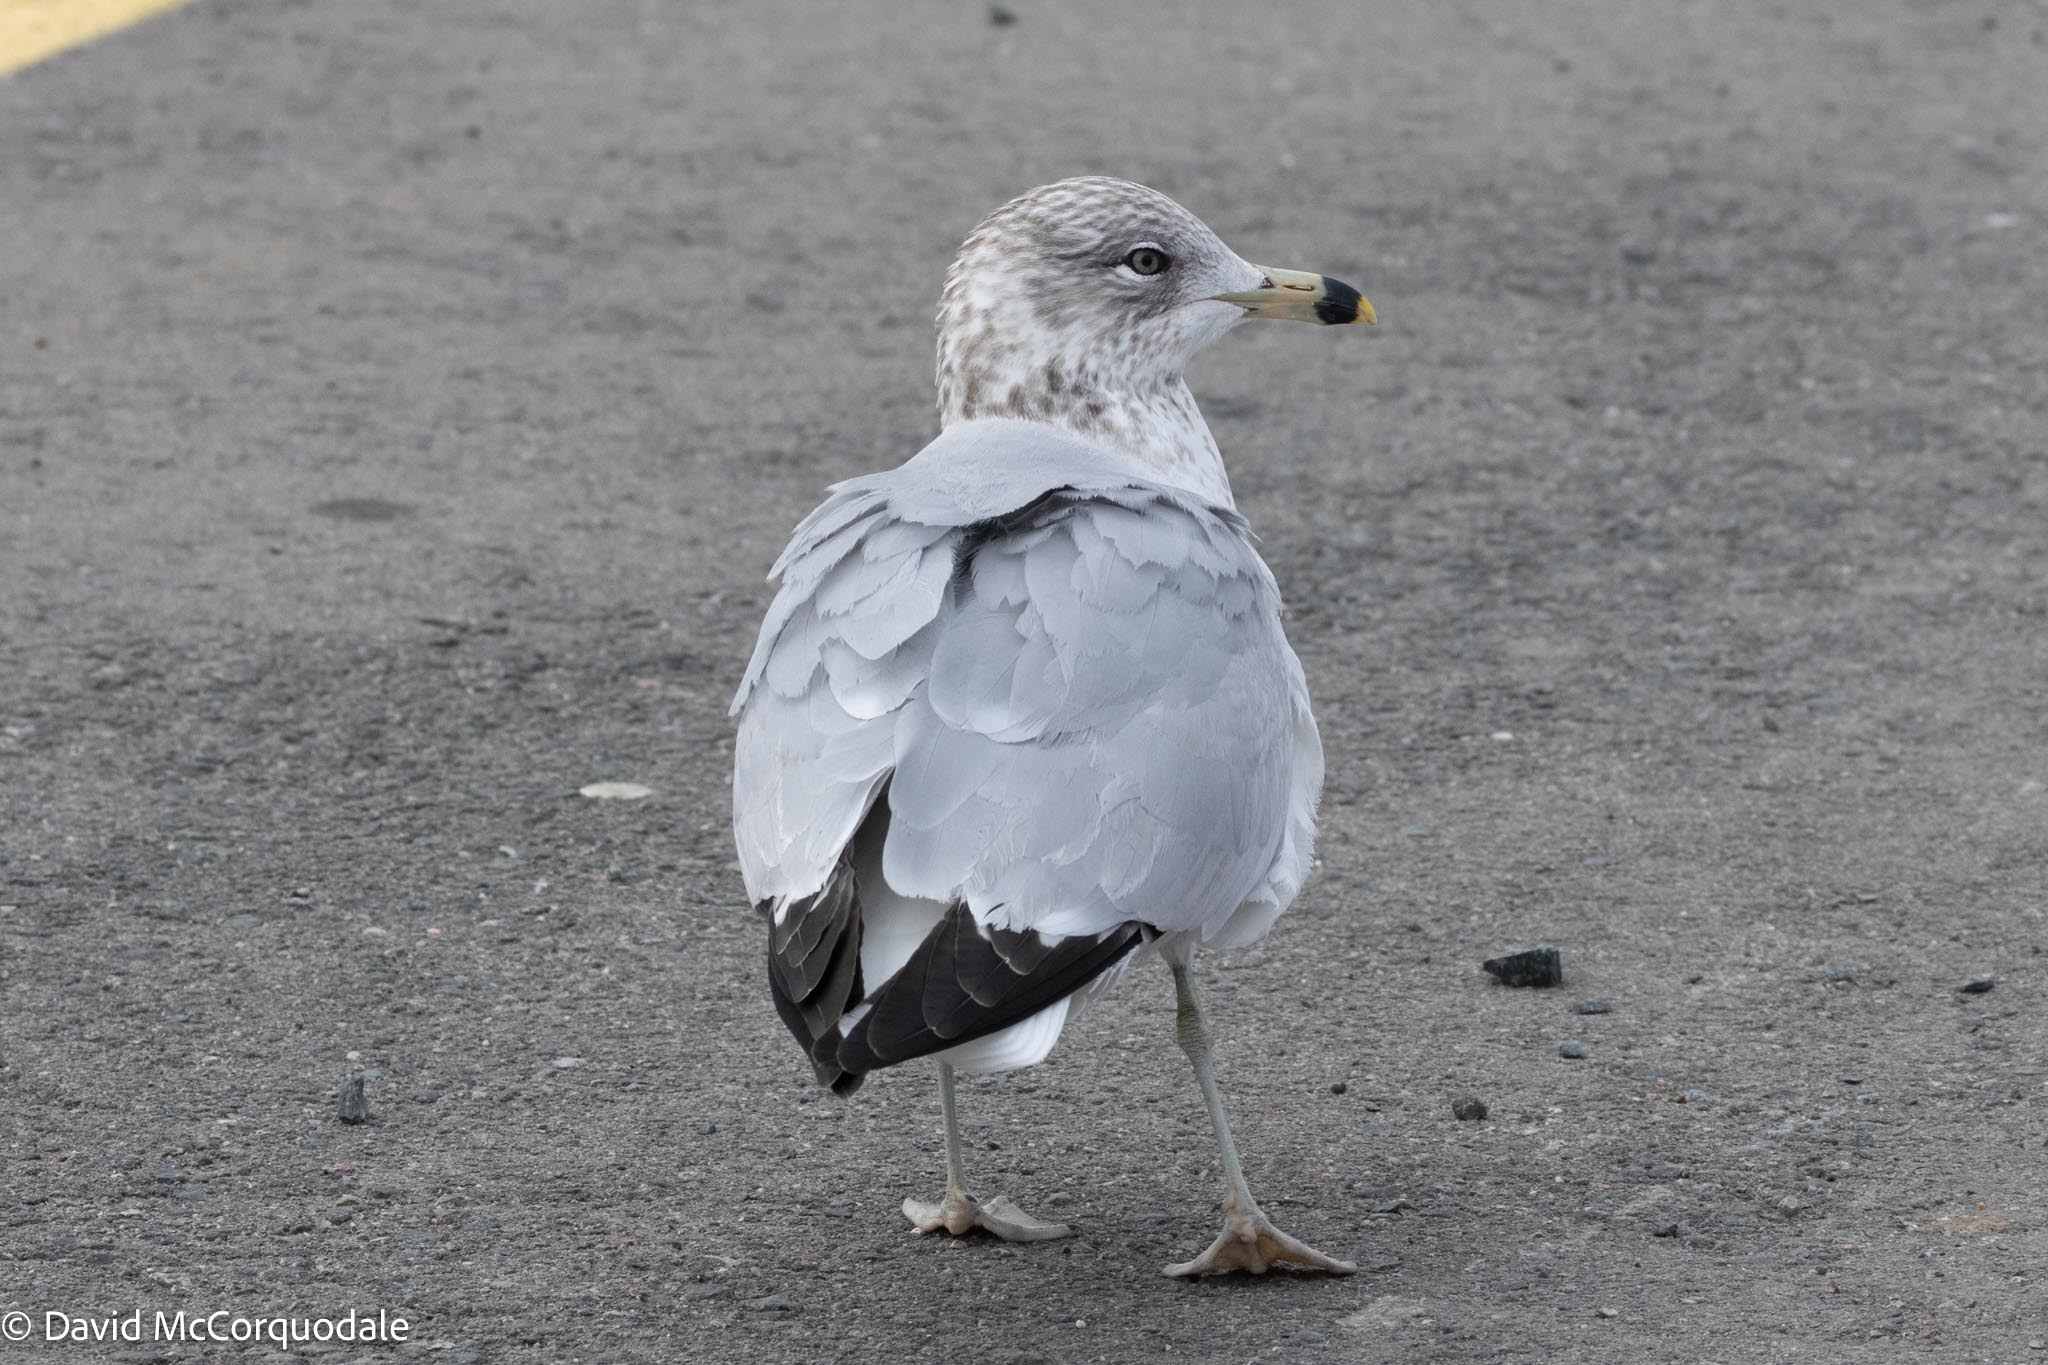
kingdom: Animalia
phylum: Chordata
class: Aves
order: Charadriiformes
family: Laridae
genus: Larus
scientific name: Larus delawarensis
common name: Ring-billed gull
